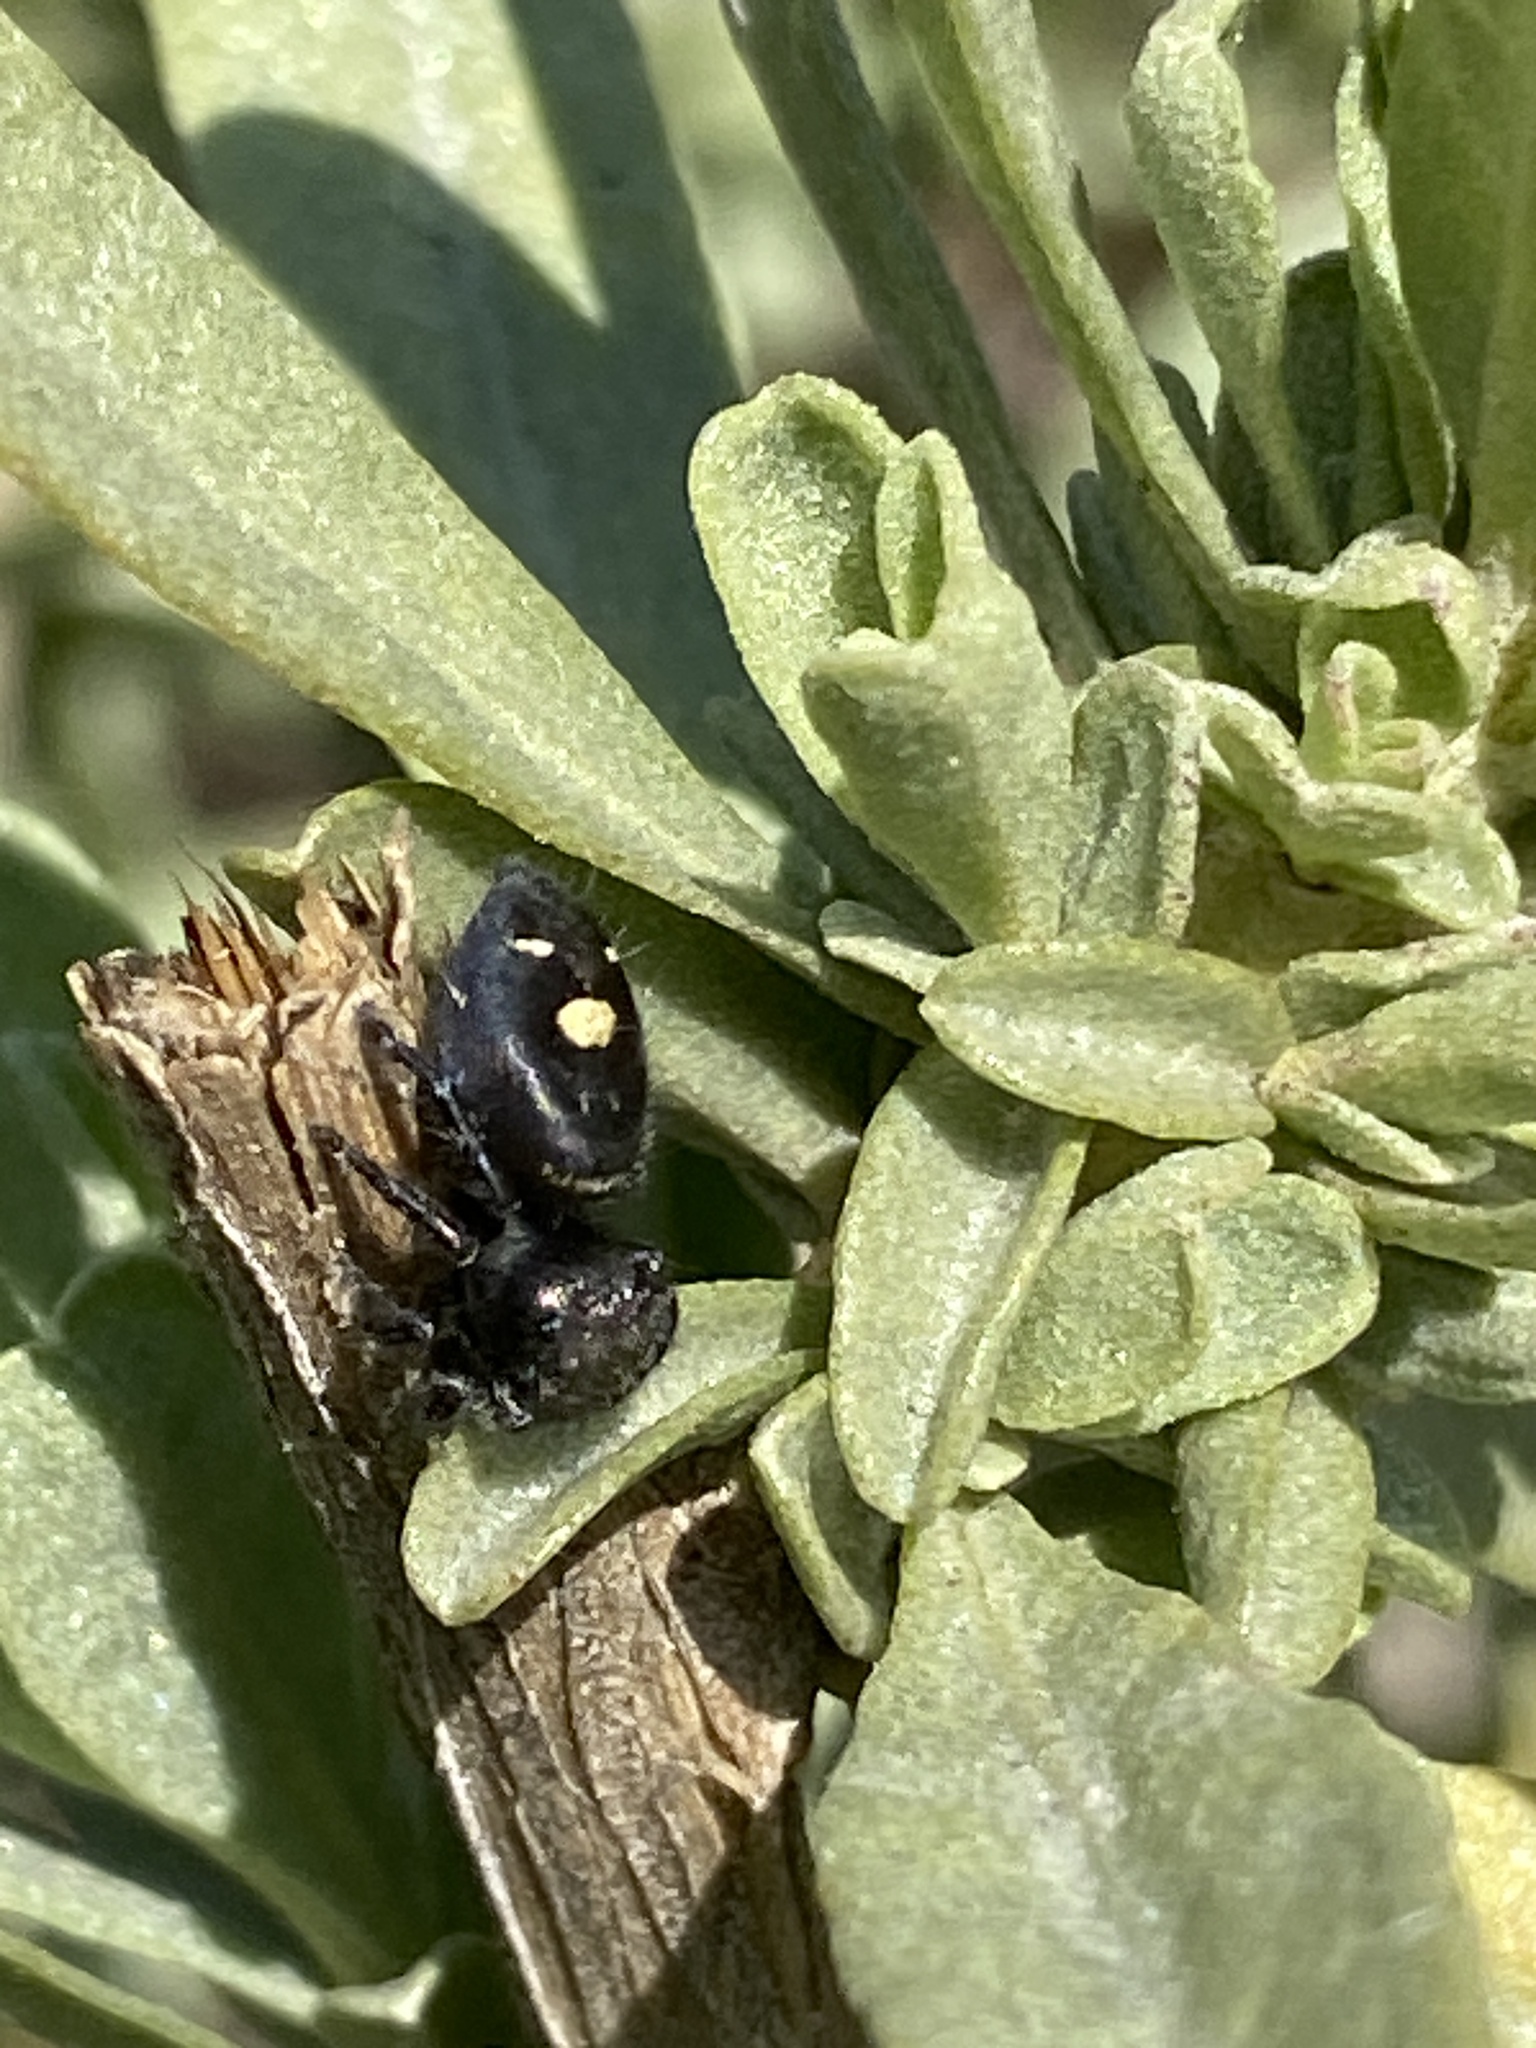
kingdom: Animalia
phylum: Arthropoda
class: Arachnida
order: Araneae
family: Salticidae
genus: Phidippus
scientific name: Phidippus audax
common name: Bold jumper
